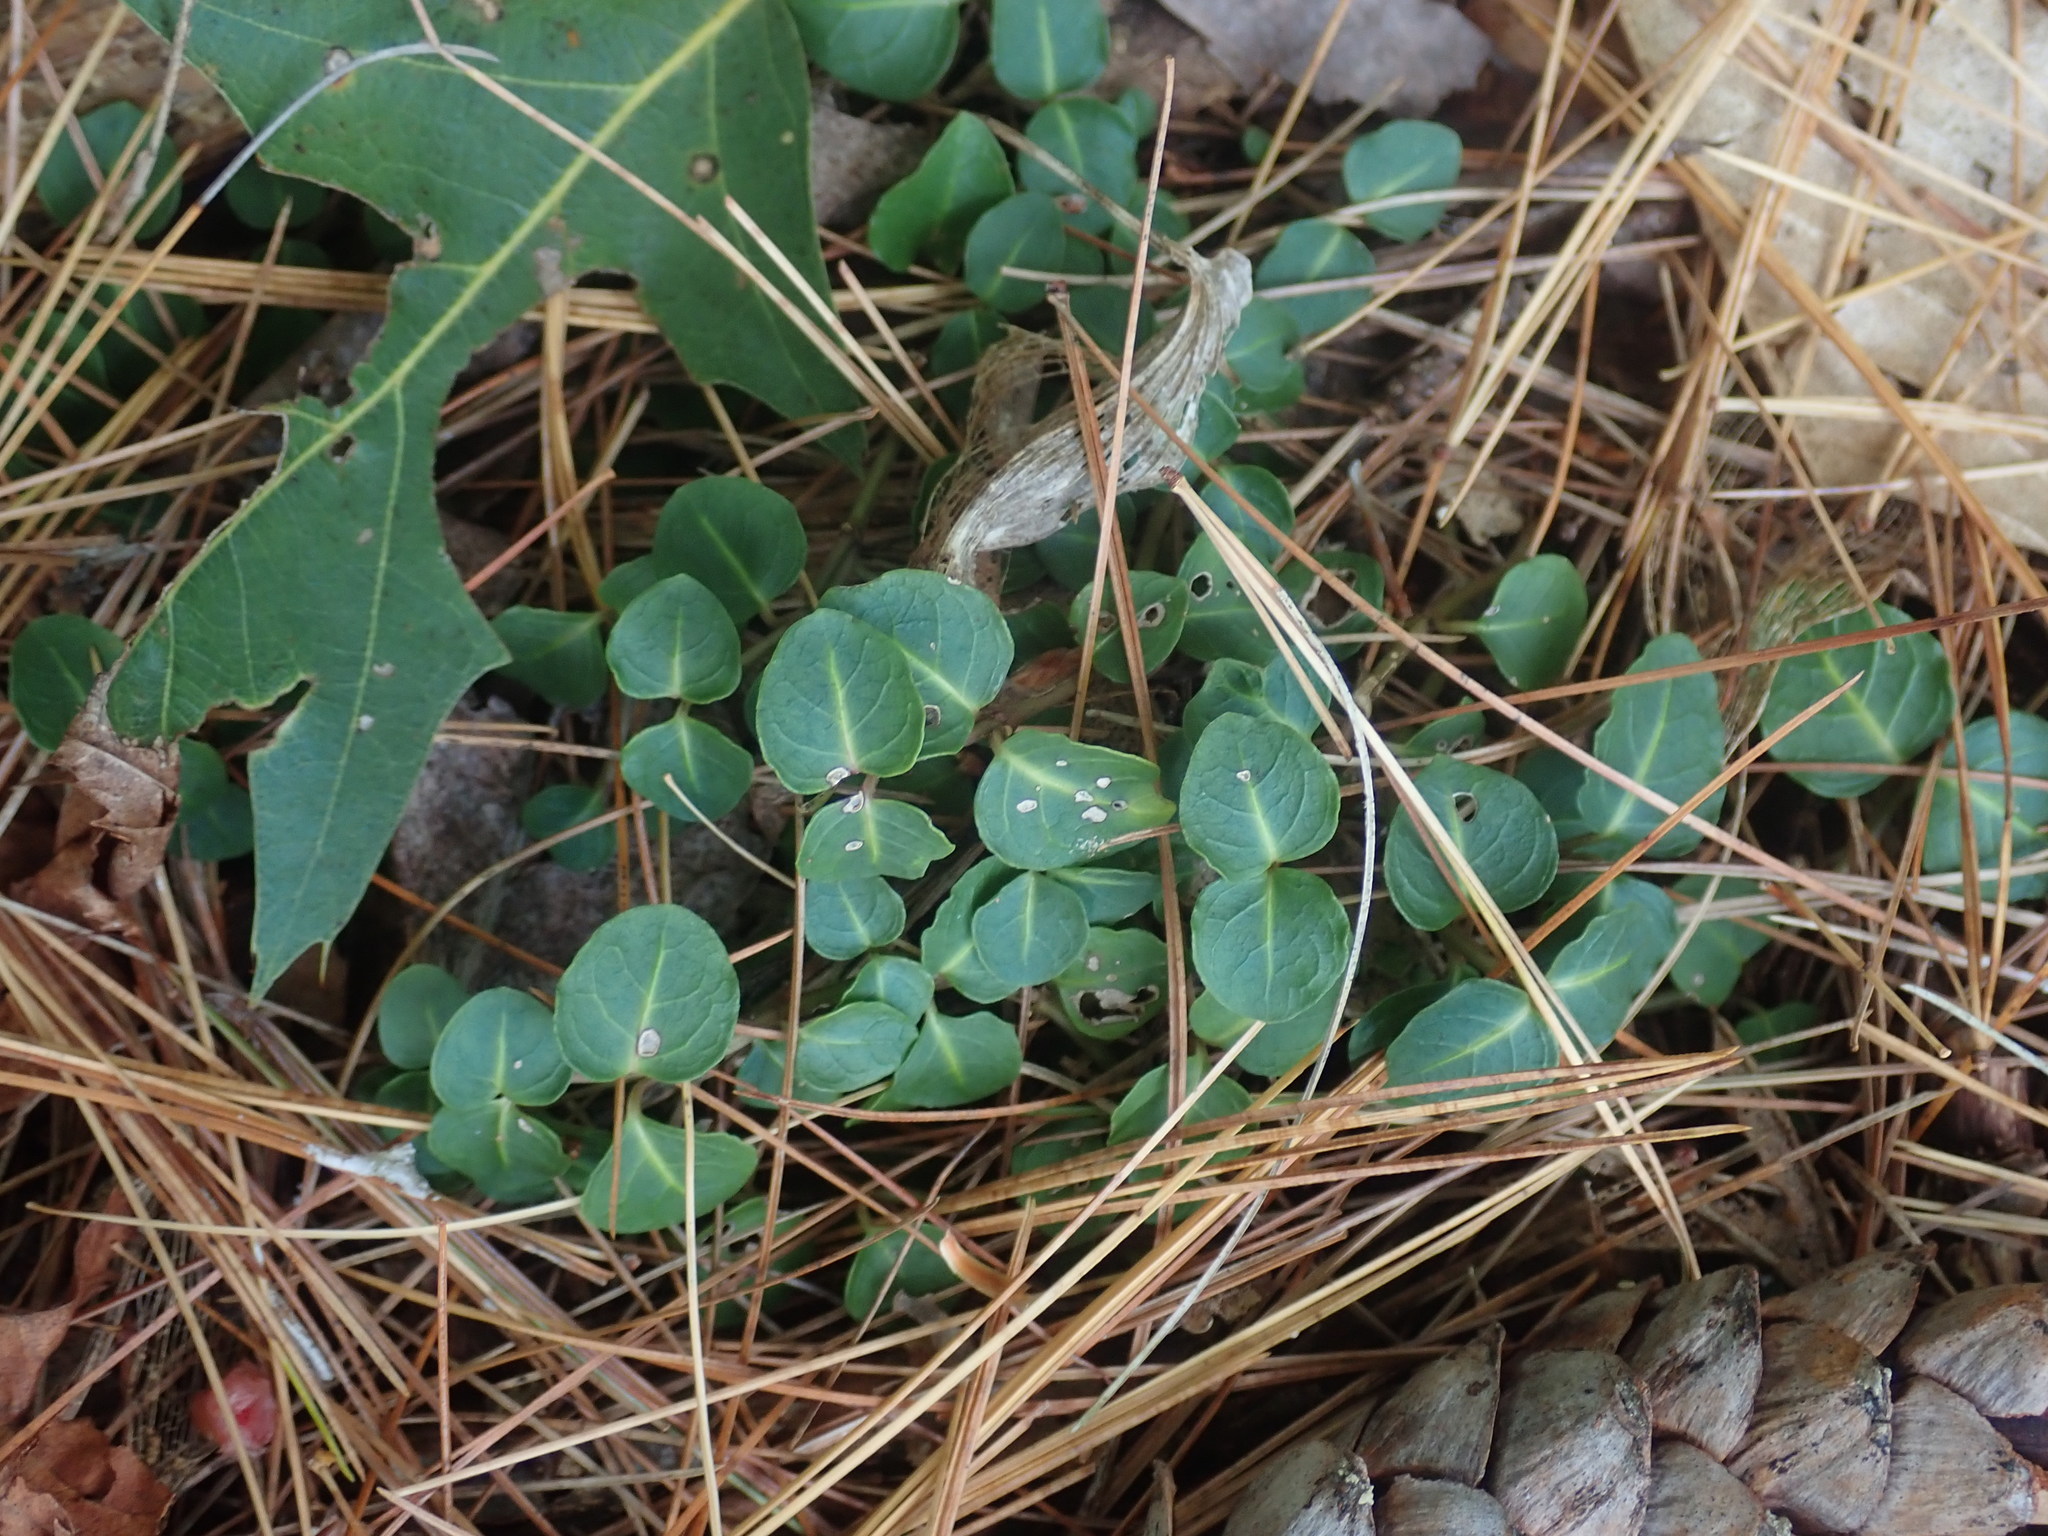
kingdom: Plantae
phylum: Tracheophyta
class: Magnoliopsida
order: Gentianales
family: Rubiaceae
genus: Mitchella
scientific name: Mitchella repens
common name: Partridge-berry
